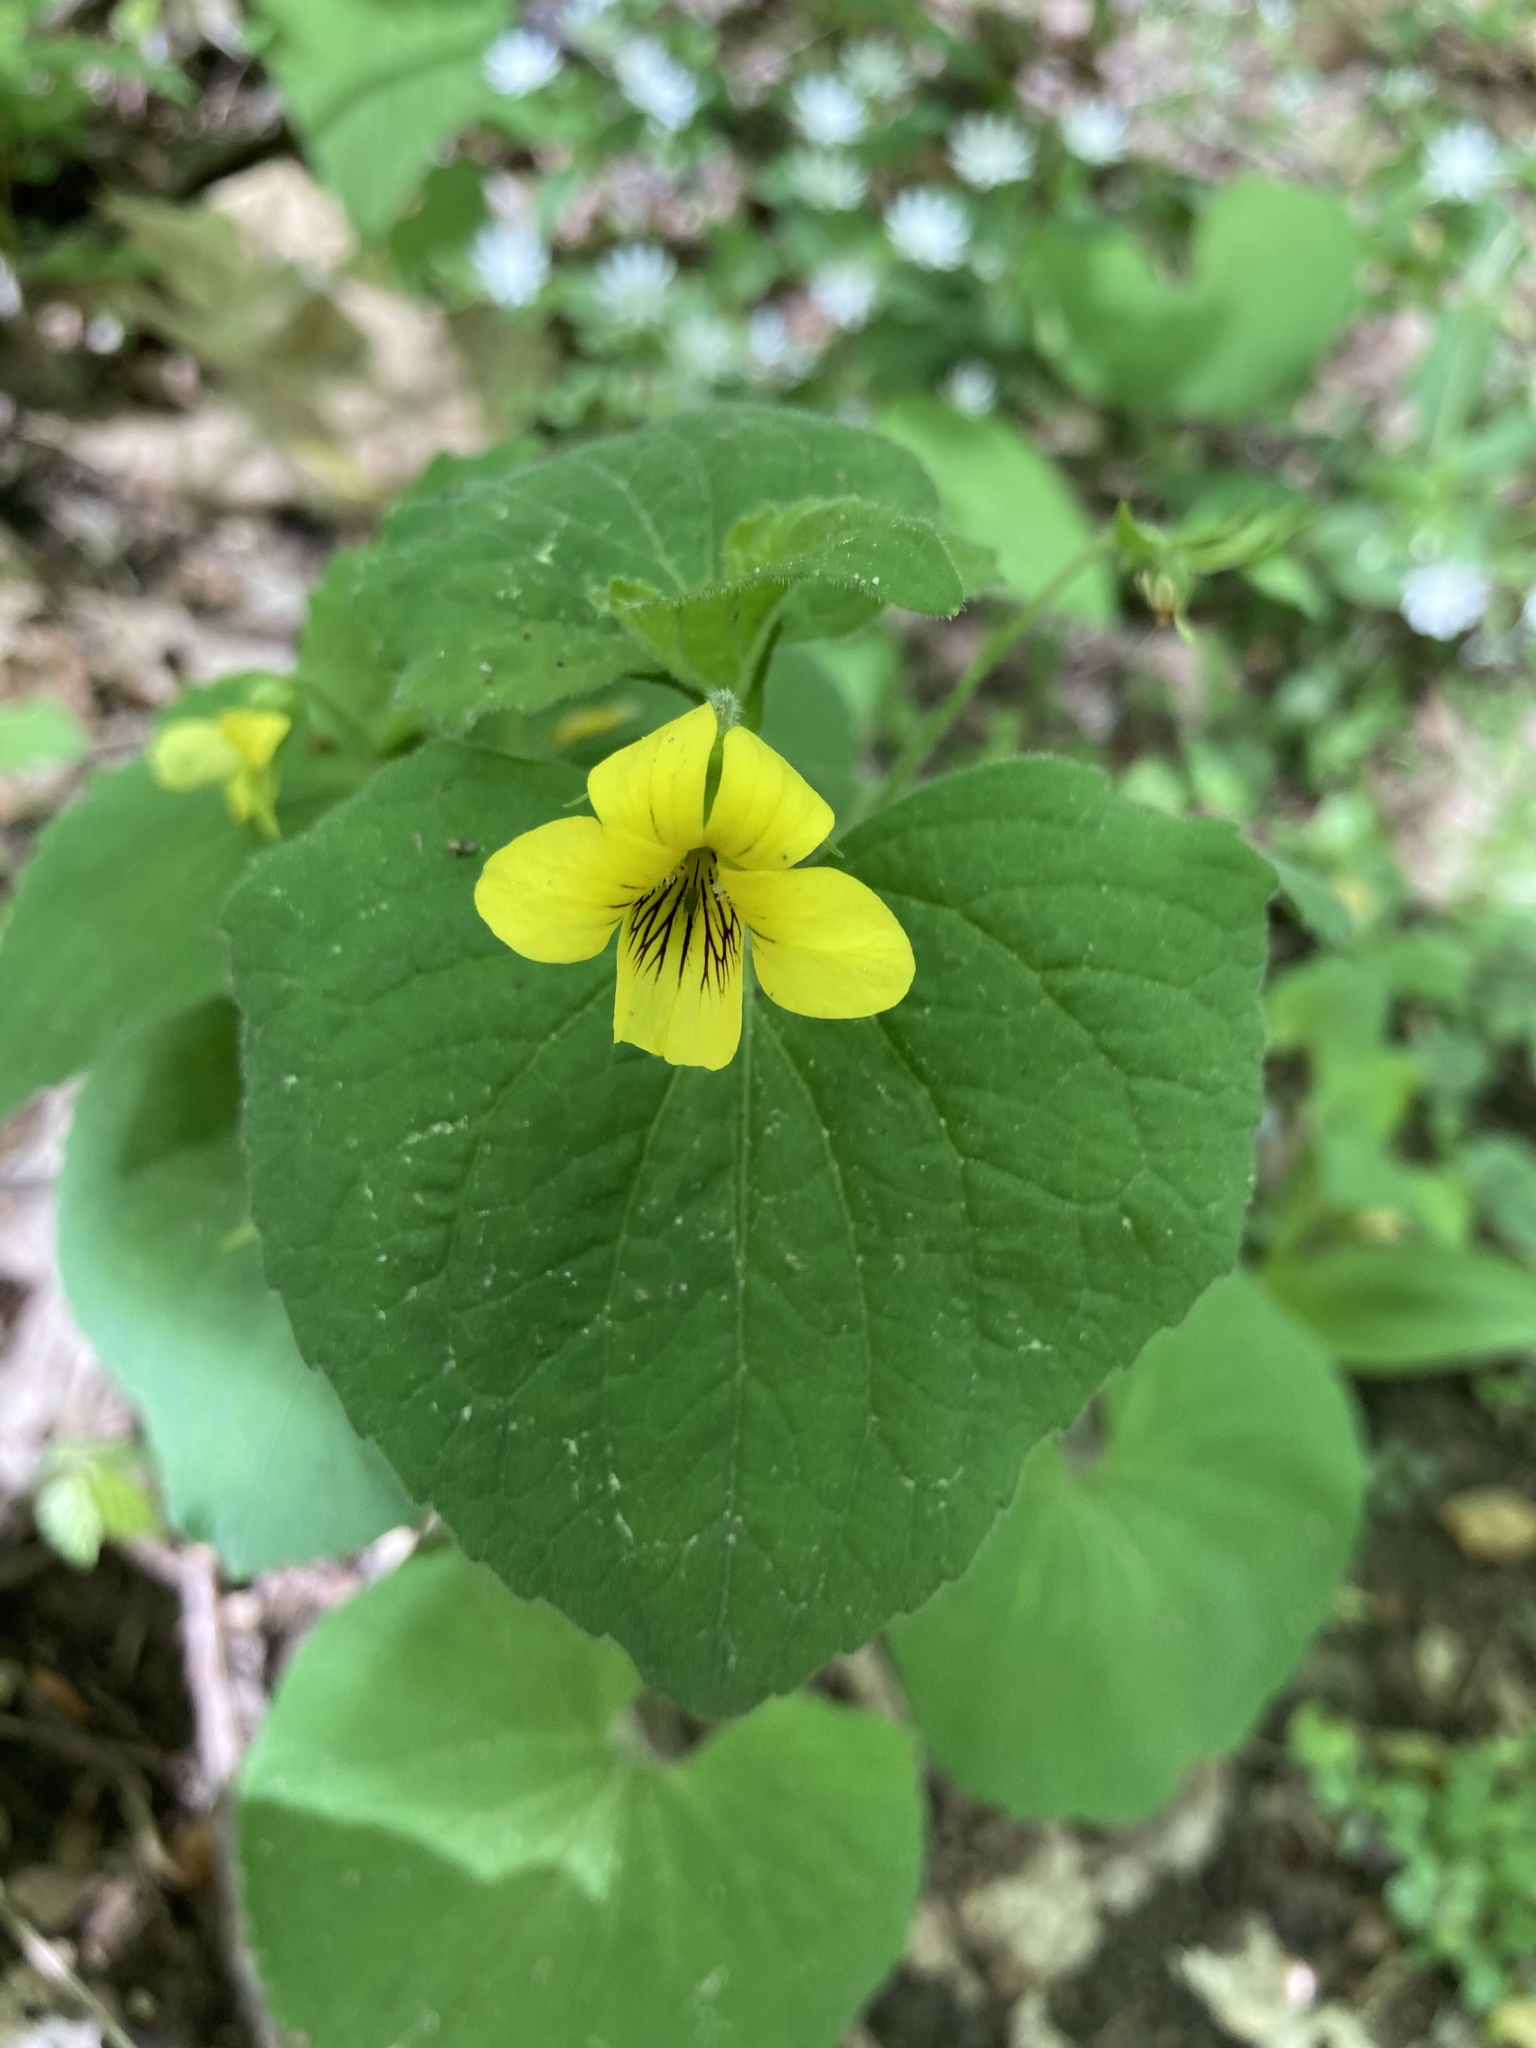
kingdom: Plantae
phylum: Tracheophyta
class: Magnoliopsida
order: Malpighiales
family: Violaceae
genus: Viola
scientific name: Viola eriocarpa
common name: Smooth yellow violet
